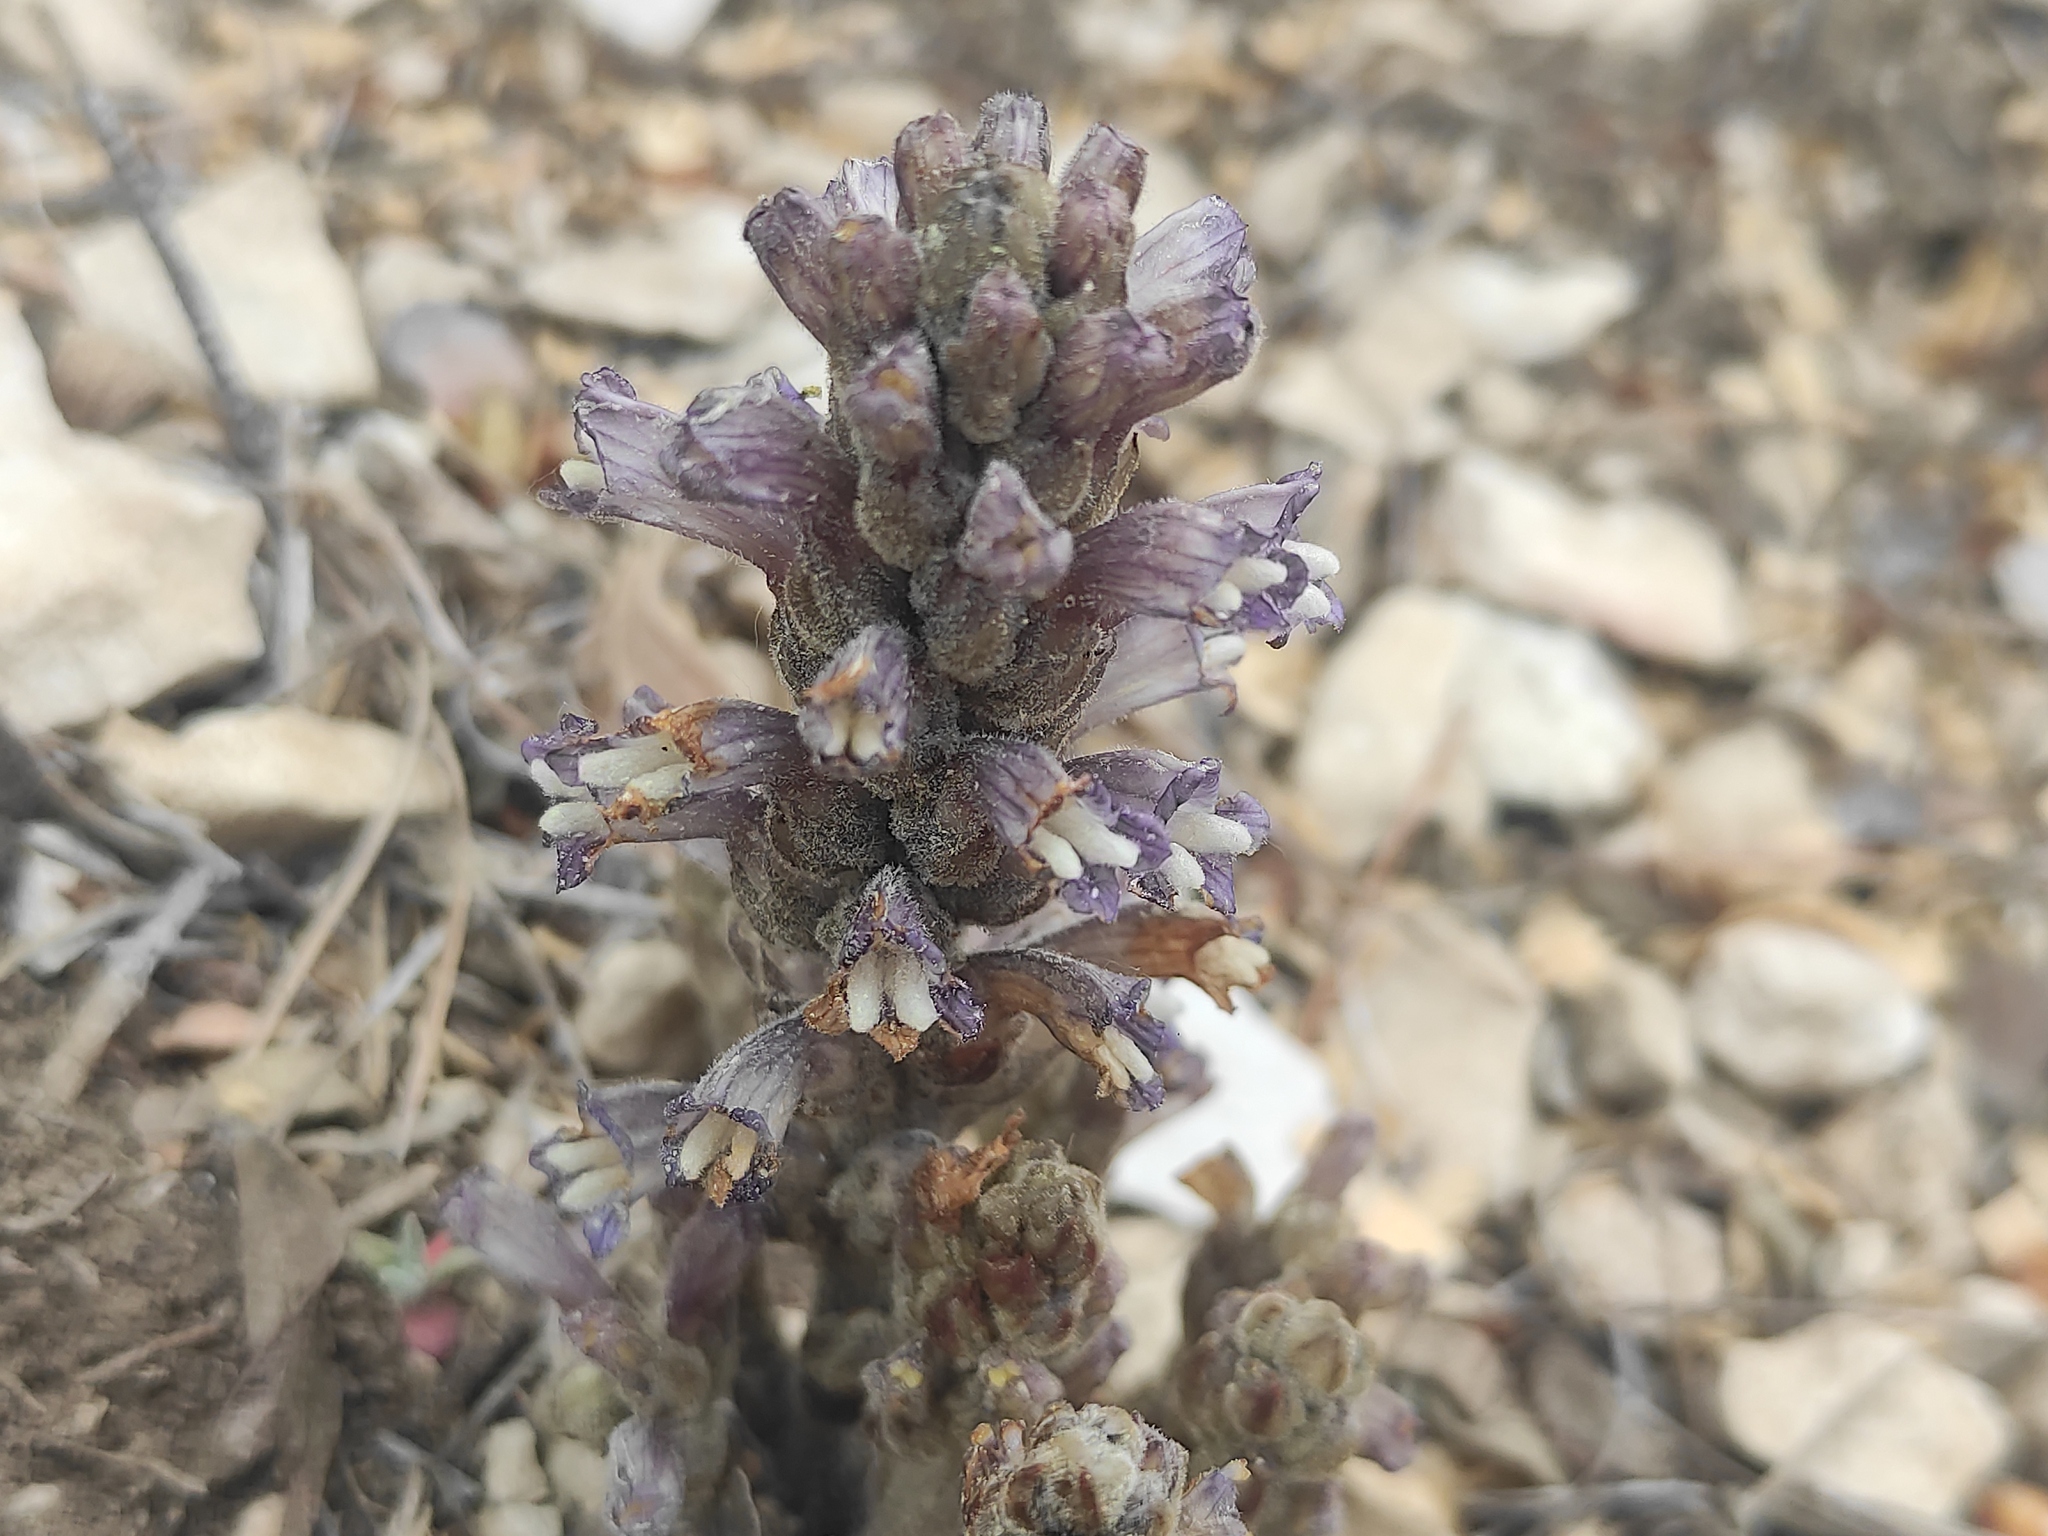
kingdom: Plantae
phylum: Tracheophyta
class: Magnoliopsida
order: Lamiales
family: Orobanchaceae
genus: Phelipanche
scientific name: Phelipanche rosmarina
